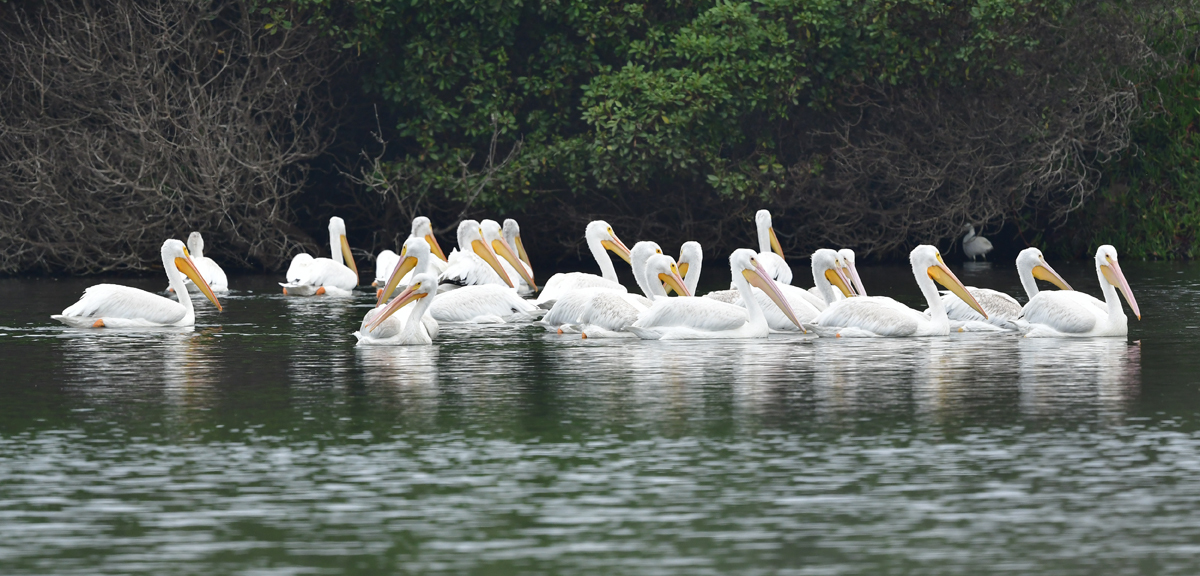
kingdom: Animalia
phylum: Chordata
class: Aves
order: Pelecaniformes
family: Pelecanidae
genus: Pelecanus
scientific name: Pelecanus erythrorhynchos
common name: American white pelican
